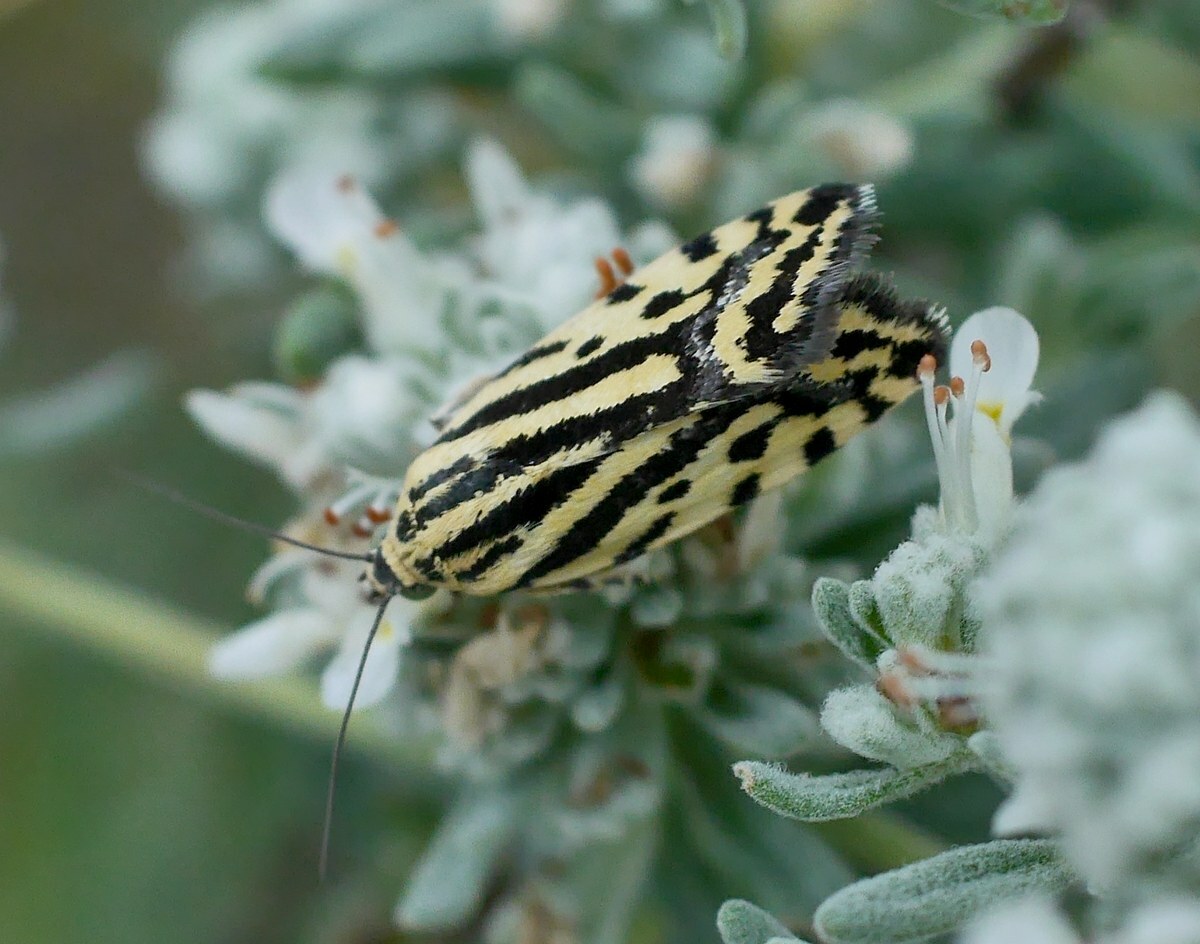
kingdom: Animalia
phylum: Arthropoda
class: Insecta
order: Lepidoptera
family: Noctuidae
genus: Acontia
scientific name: Acontia trabealis
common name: Spotted sulphur
